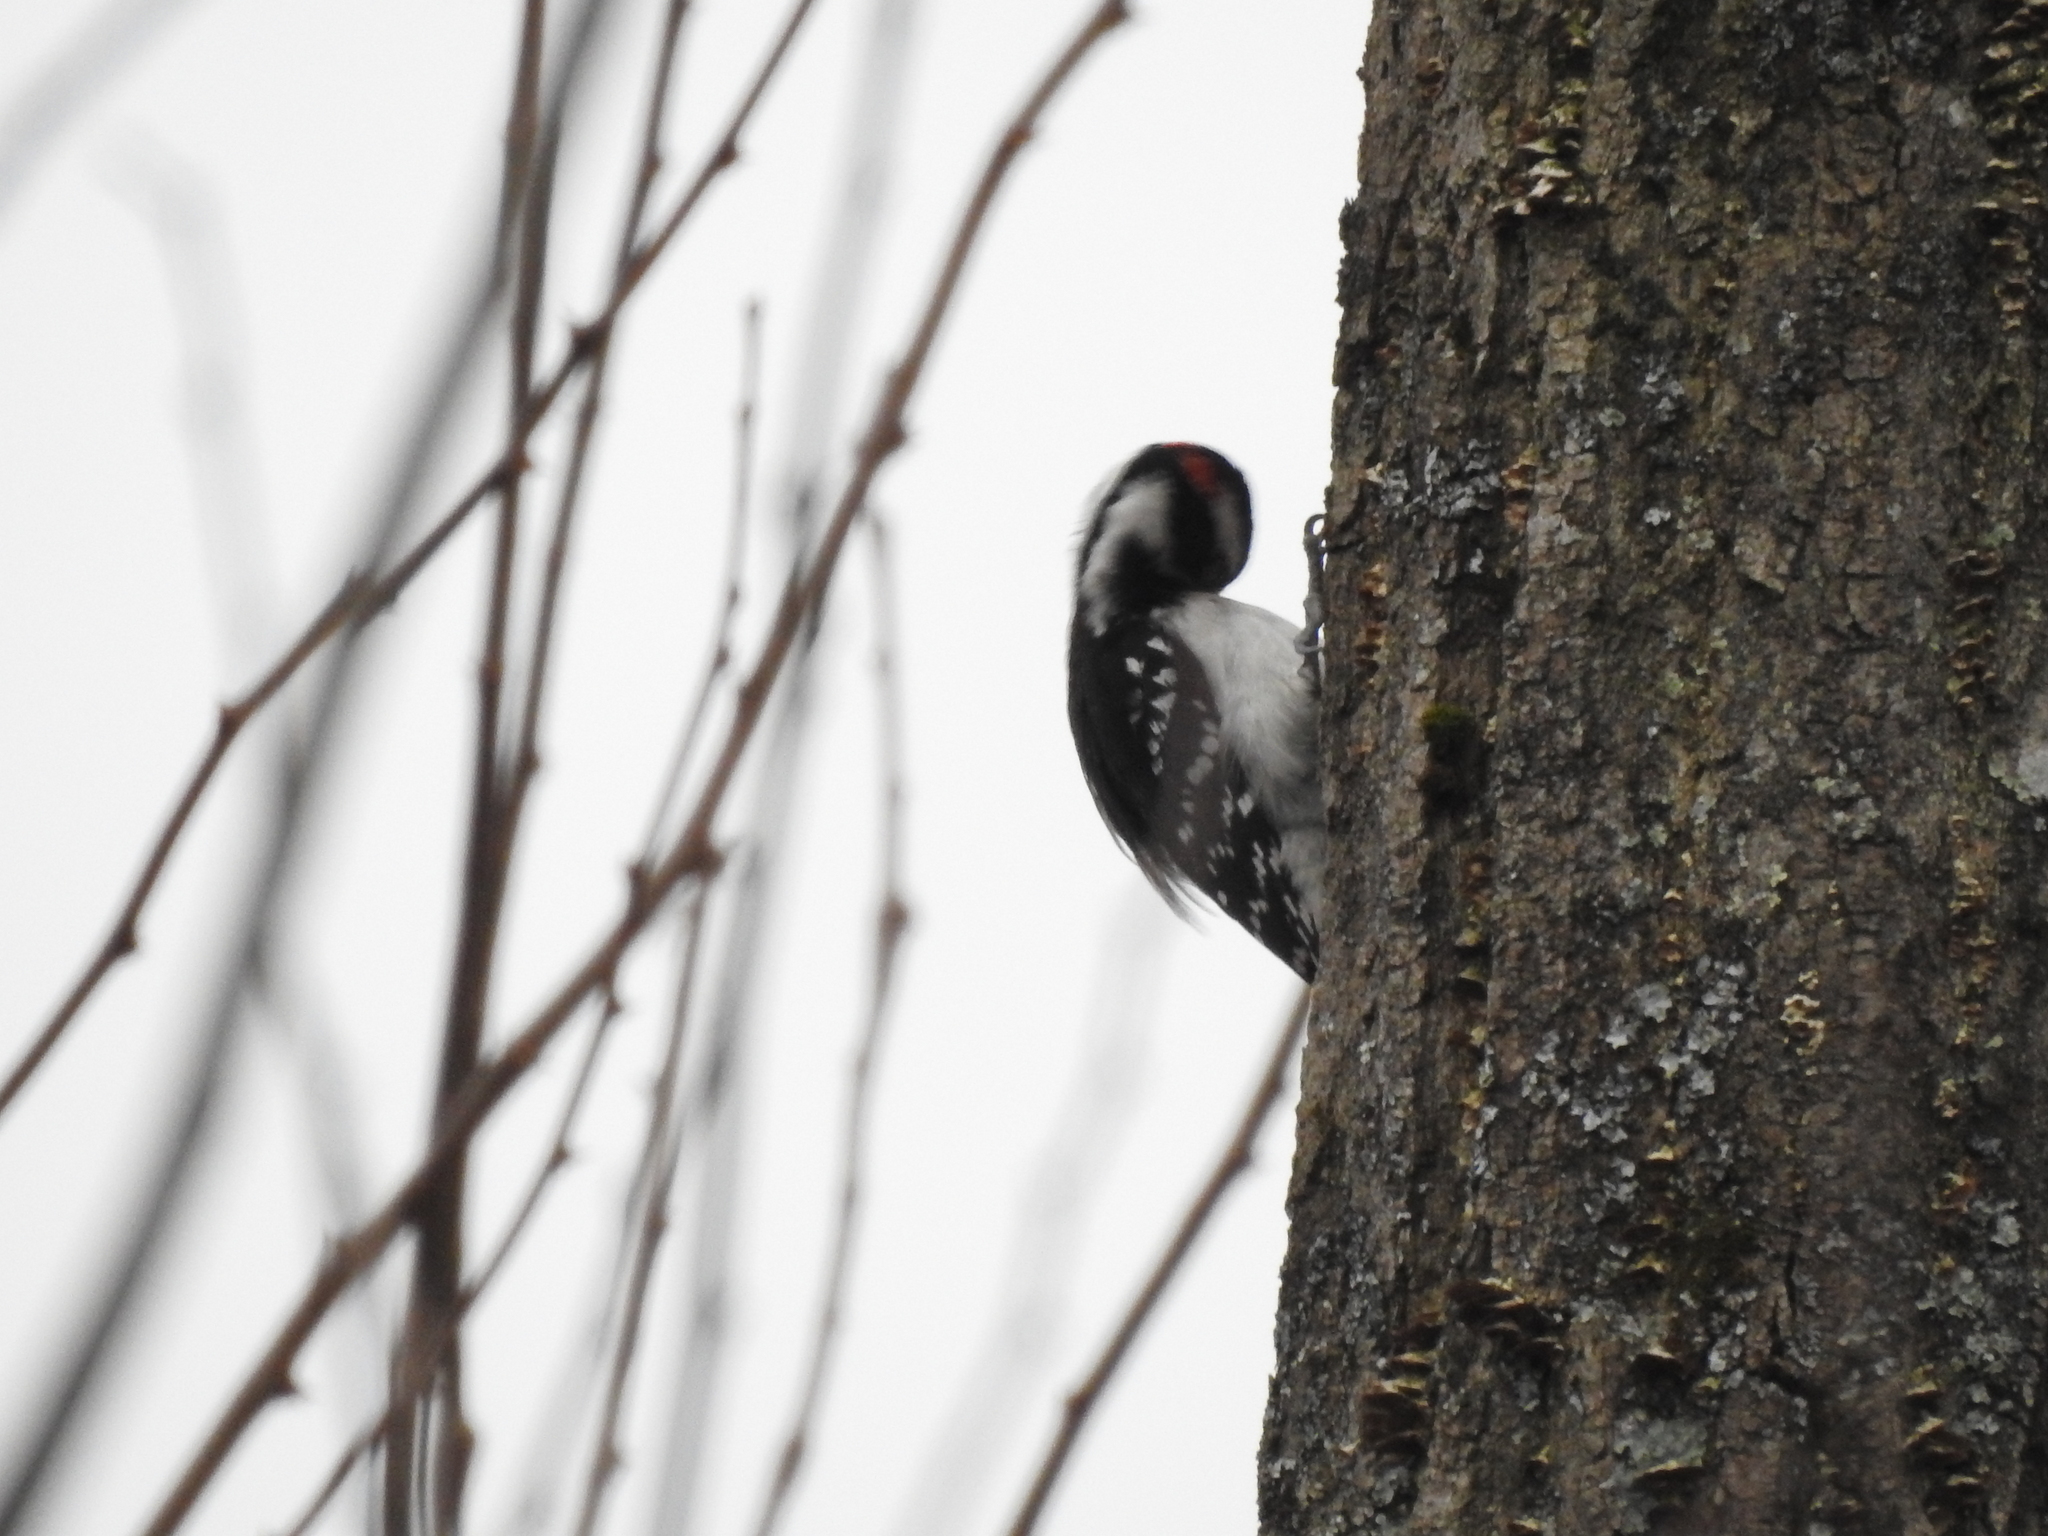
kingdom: Animalia
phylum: Chordata
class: Aves
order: Piciformes
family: Picidae
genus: Leuconotopicus
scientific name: Leuconotopicus villosus
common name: Hairy woodpecker
